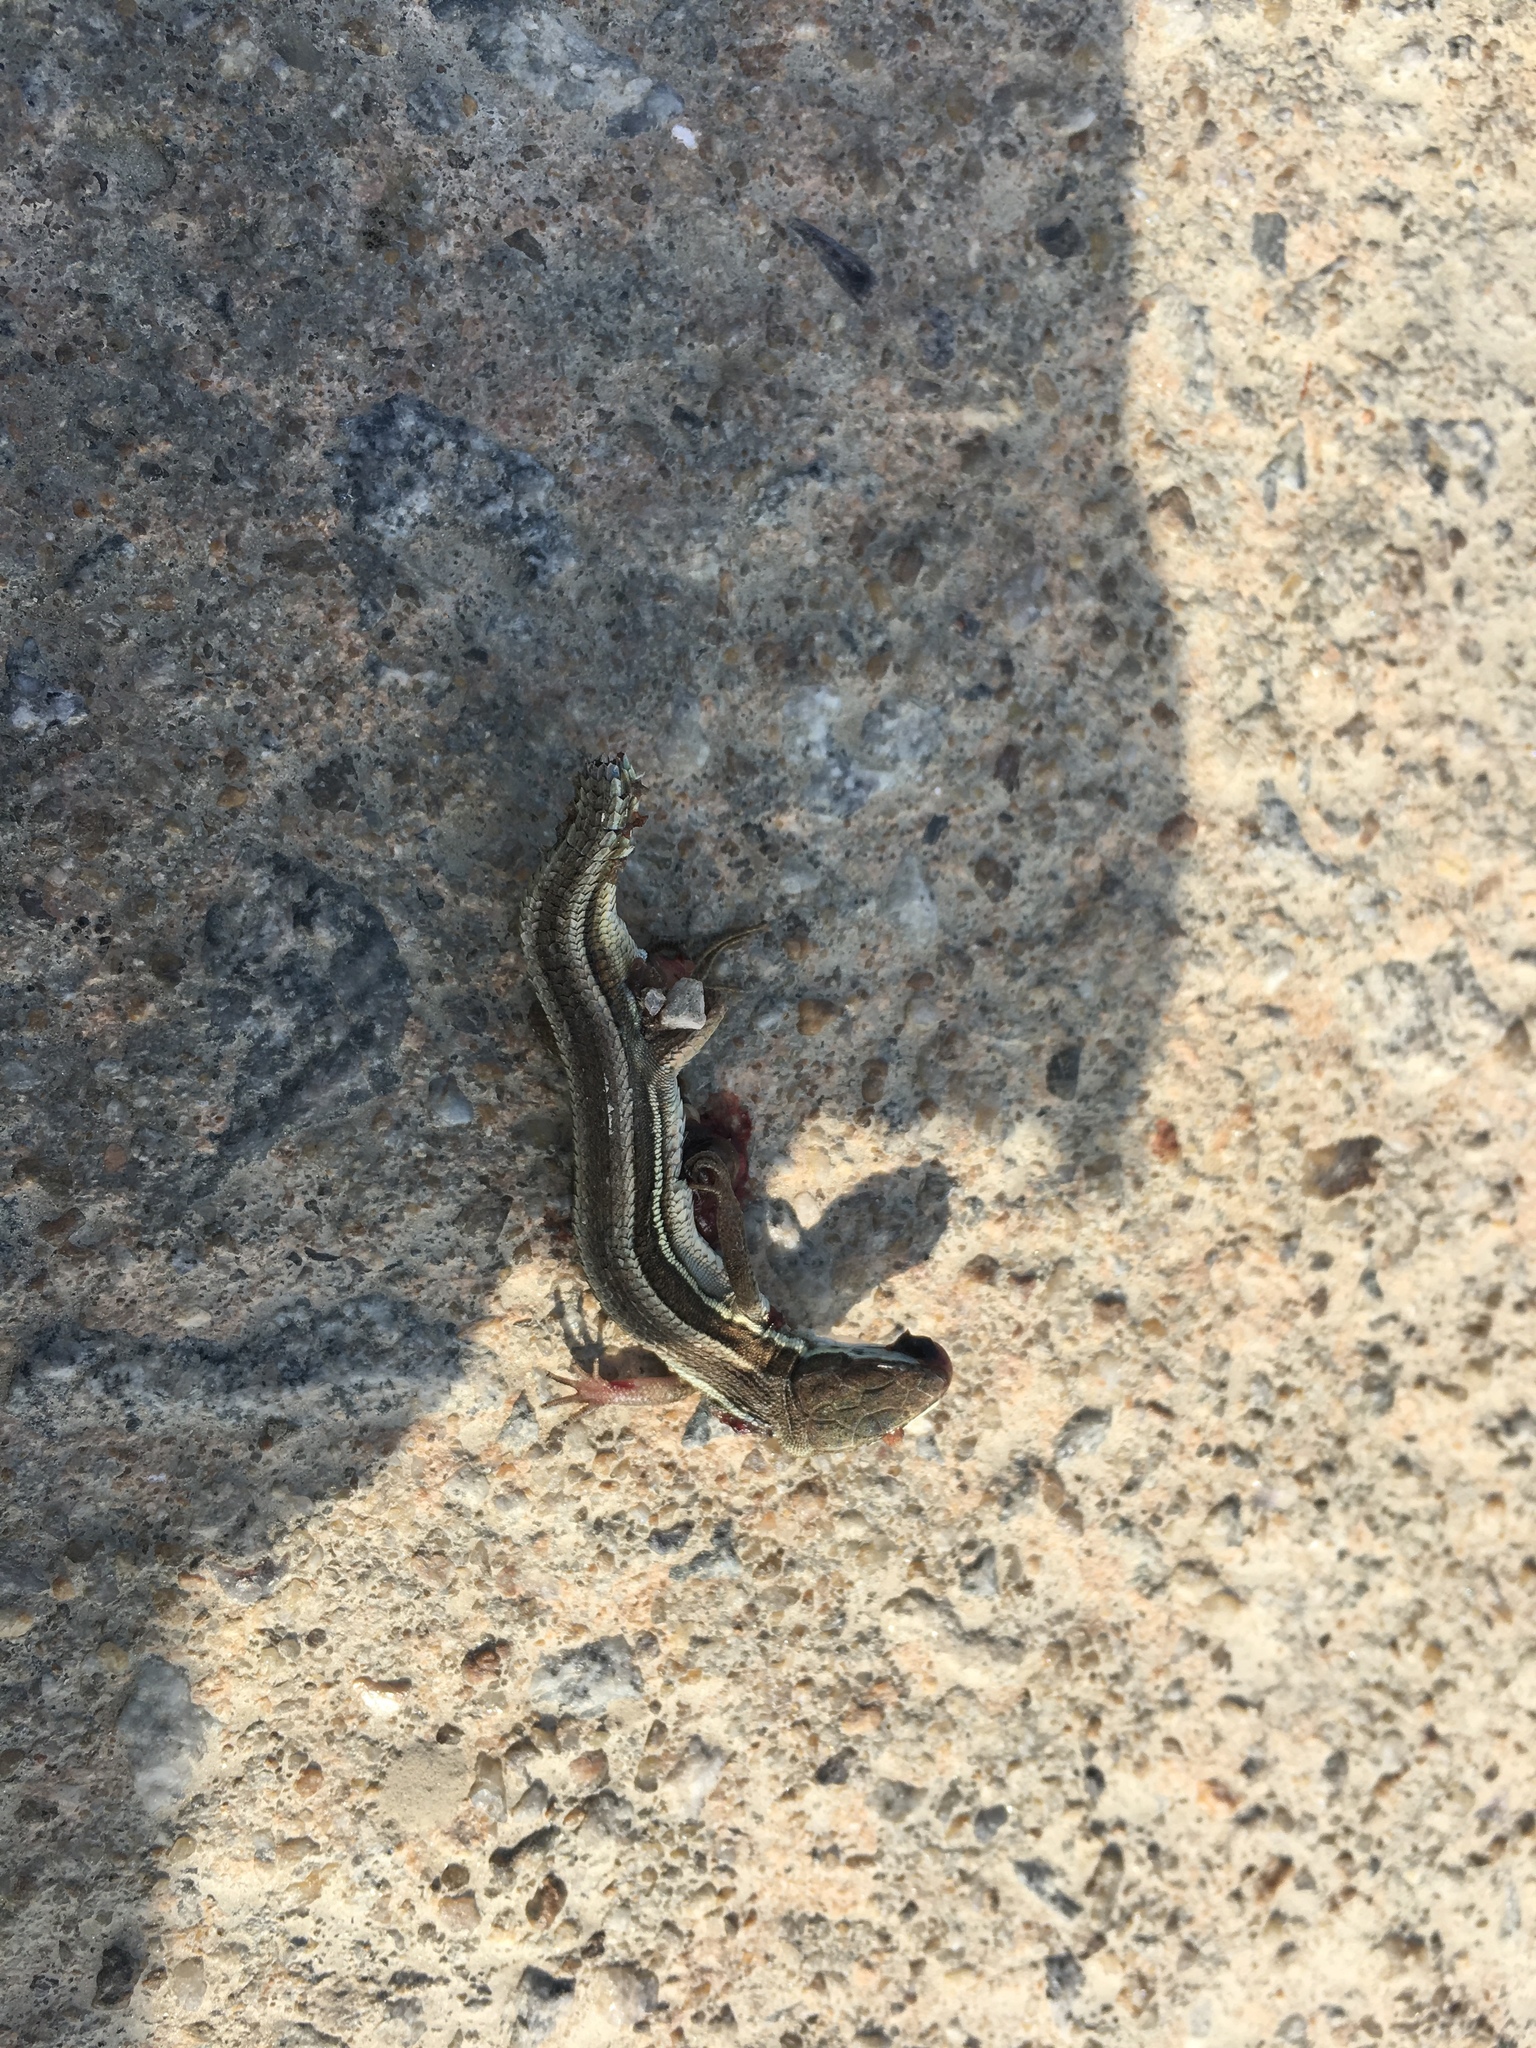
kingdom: Animalia
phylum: Chordata
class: Squamata
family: Lacertidae
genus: Takydromus
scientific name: Takydromus wolteri
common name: Mountain grass lizard
